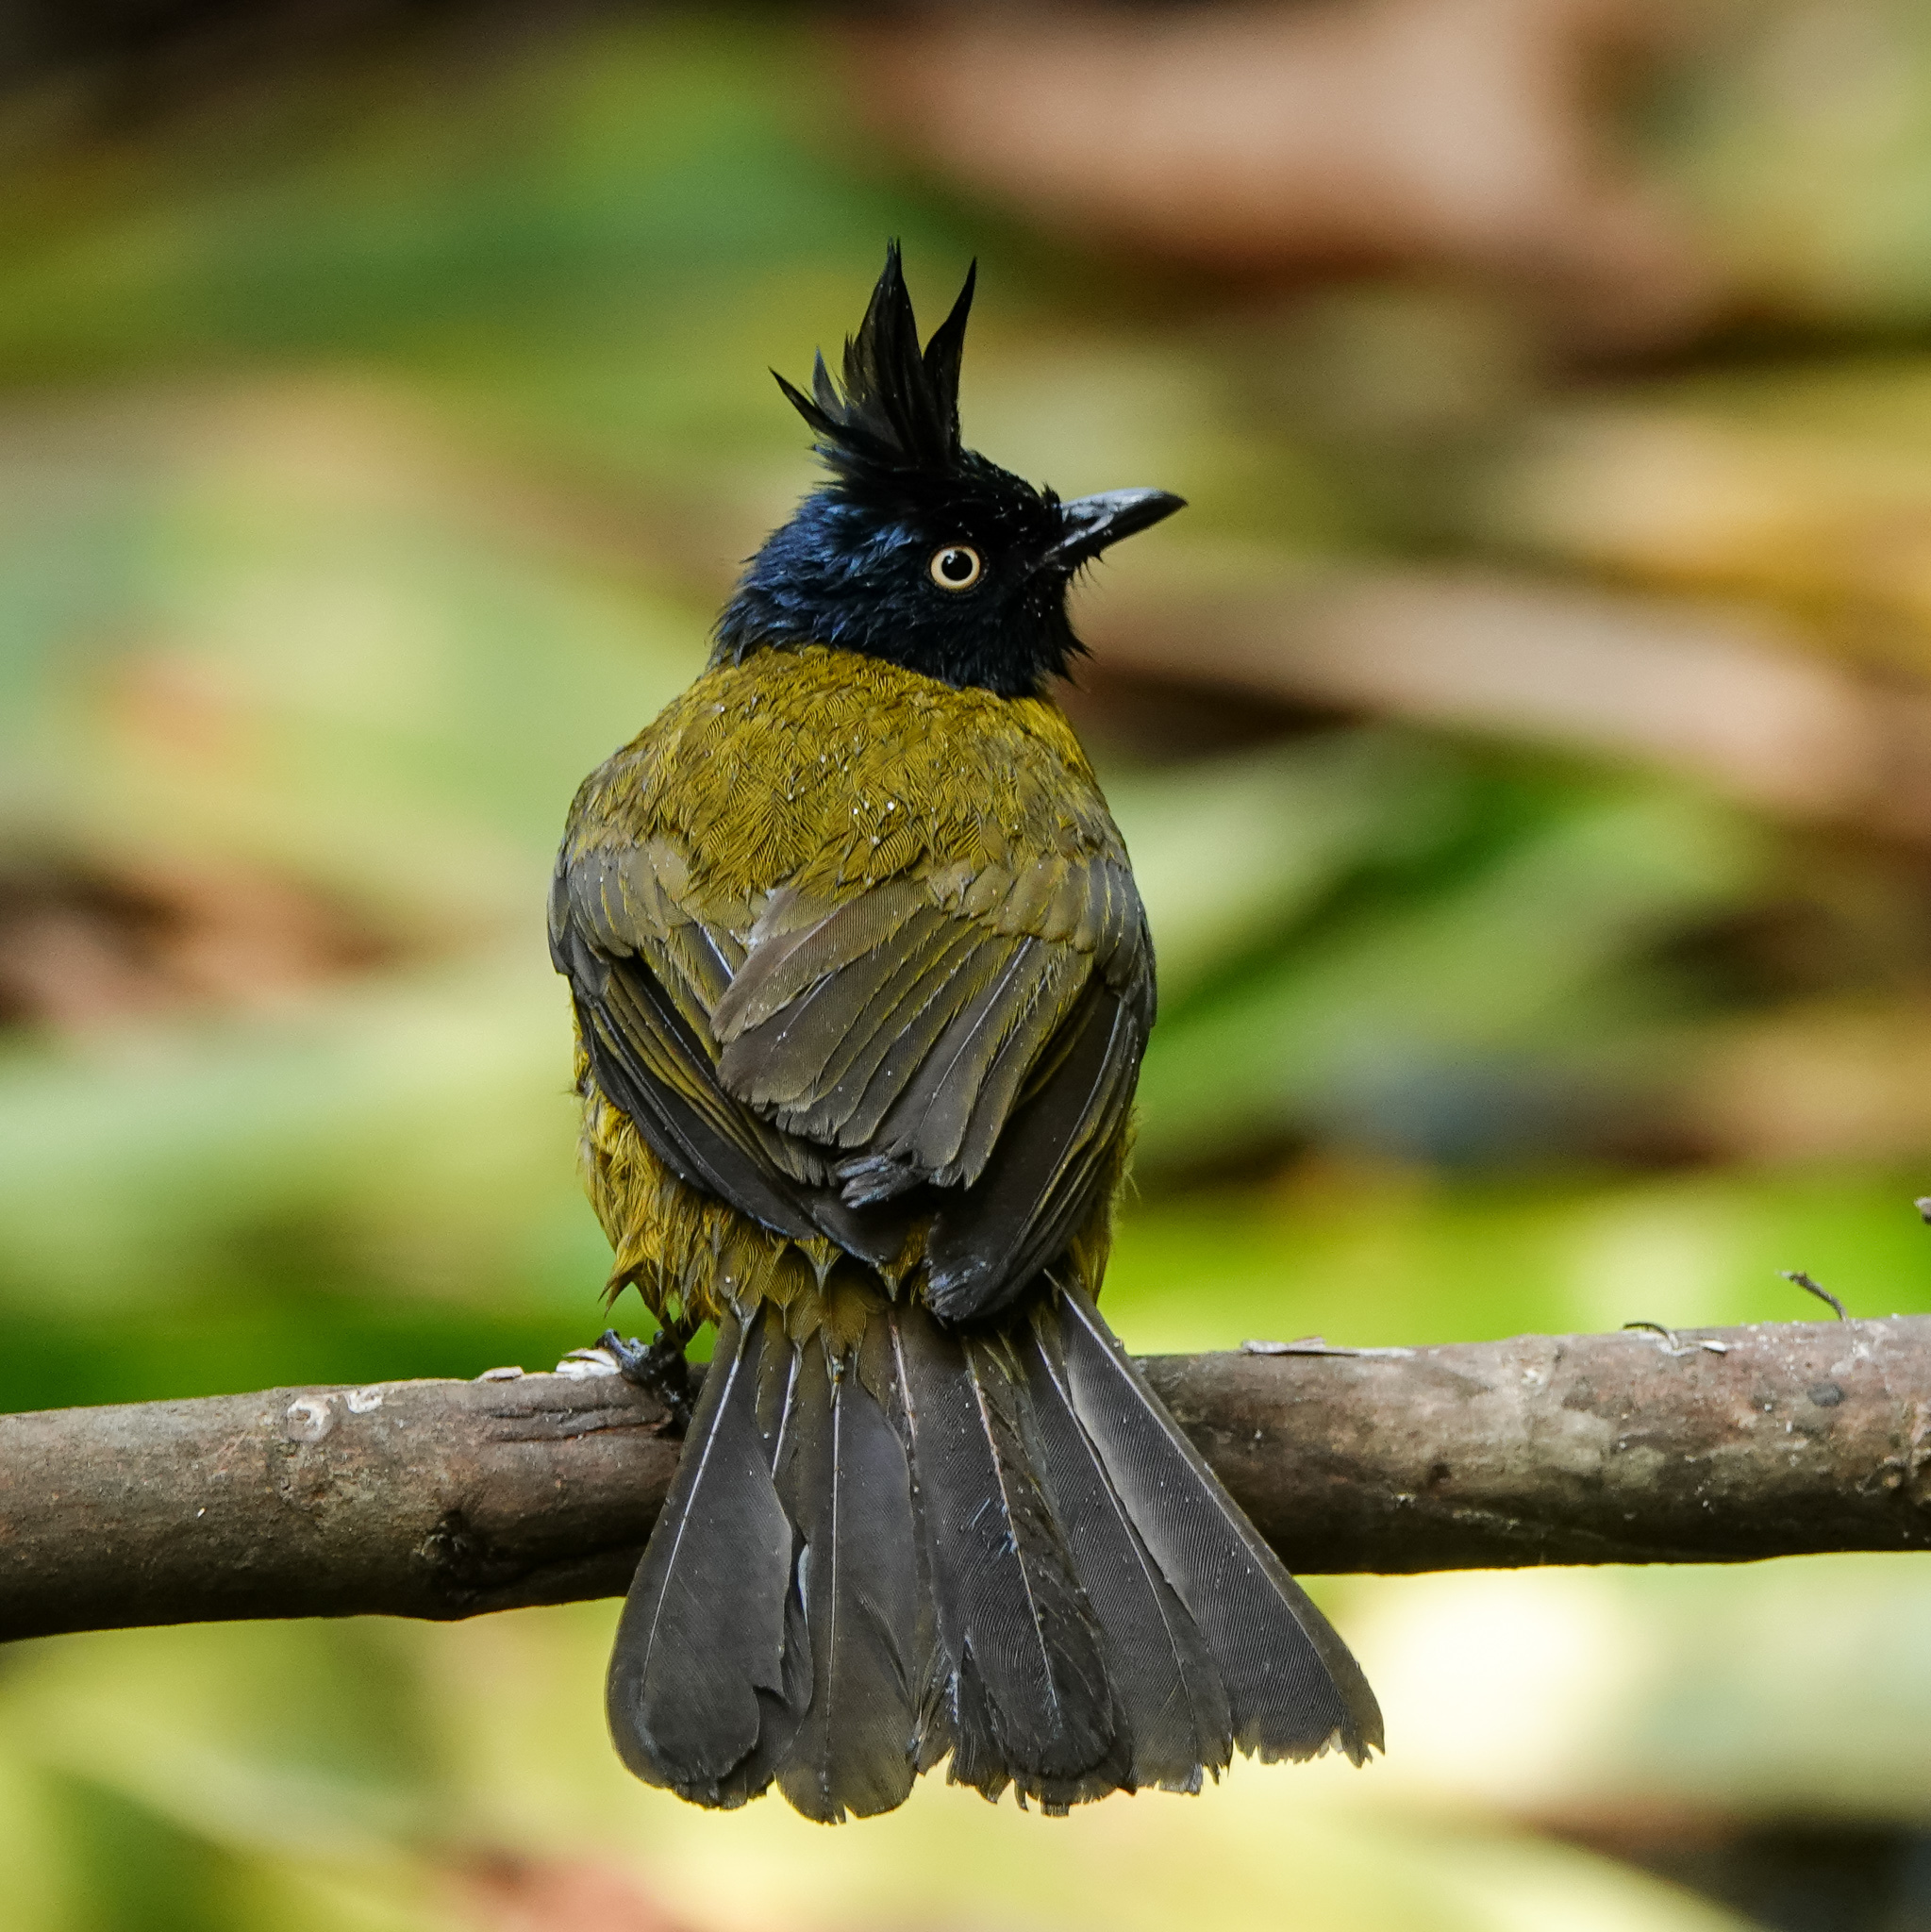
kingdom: Animalia
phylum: Chordata
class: Aves
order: Passeriformes
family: Pycnonotidae
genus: Pycnonotus
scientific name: Pycnonotus flaviventris
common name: Black-crested bulbul
